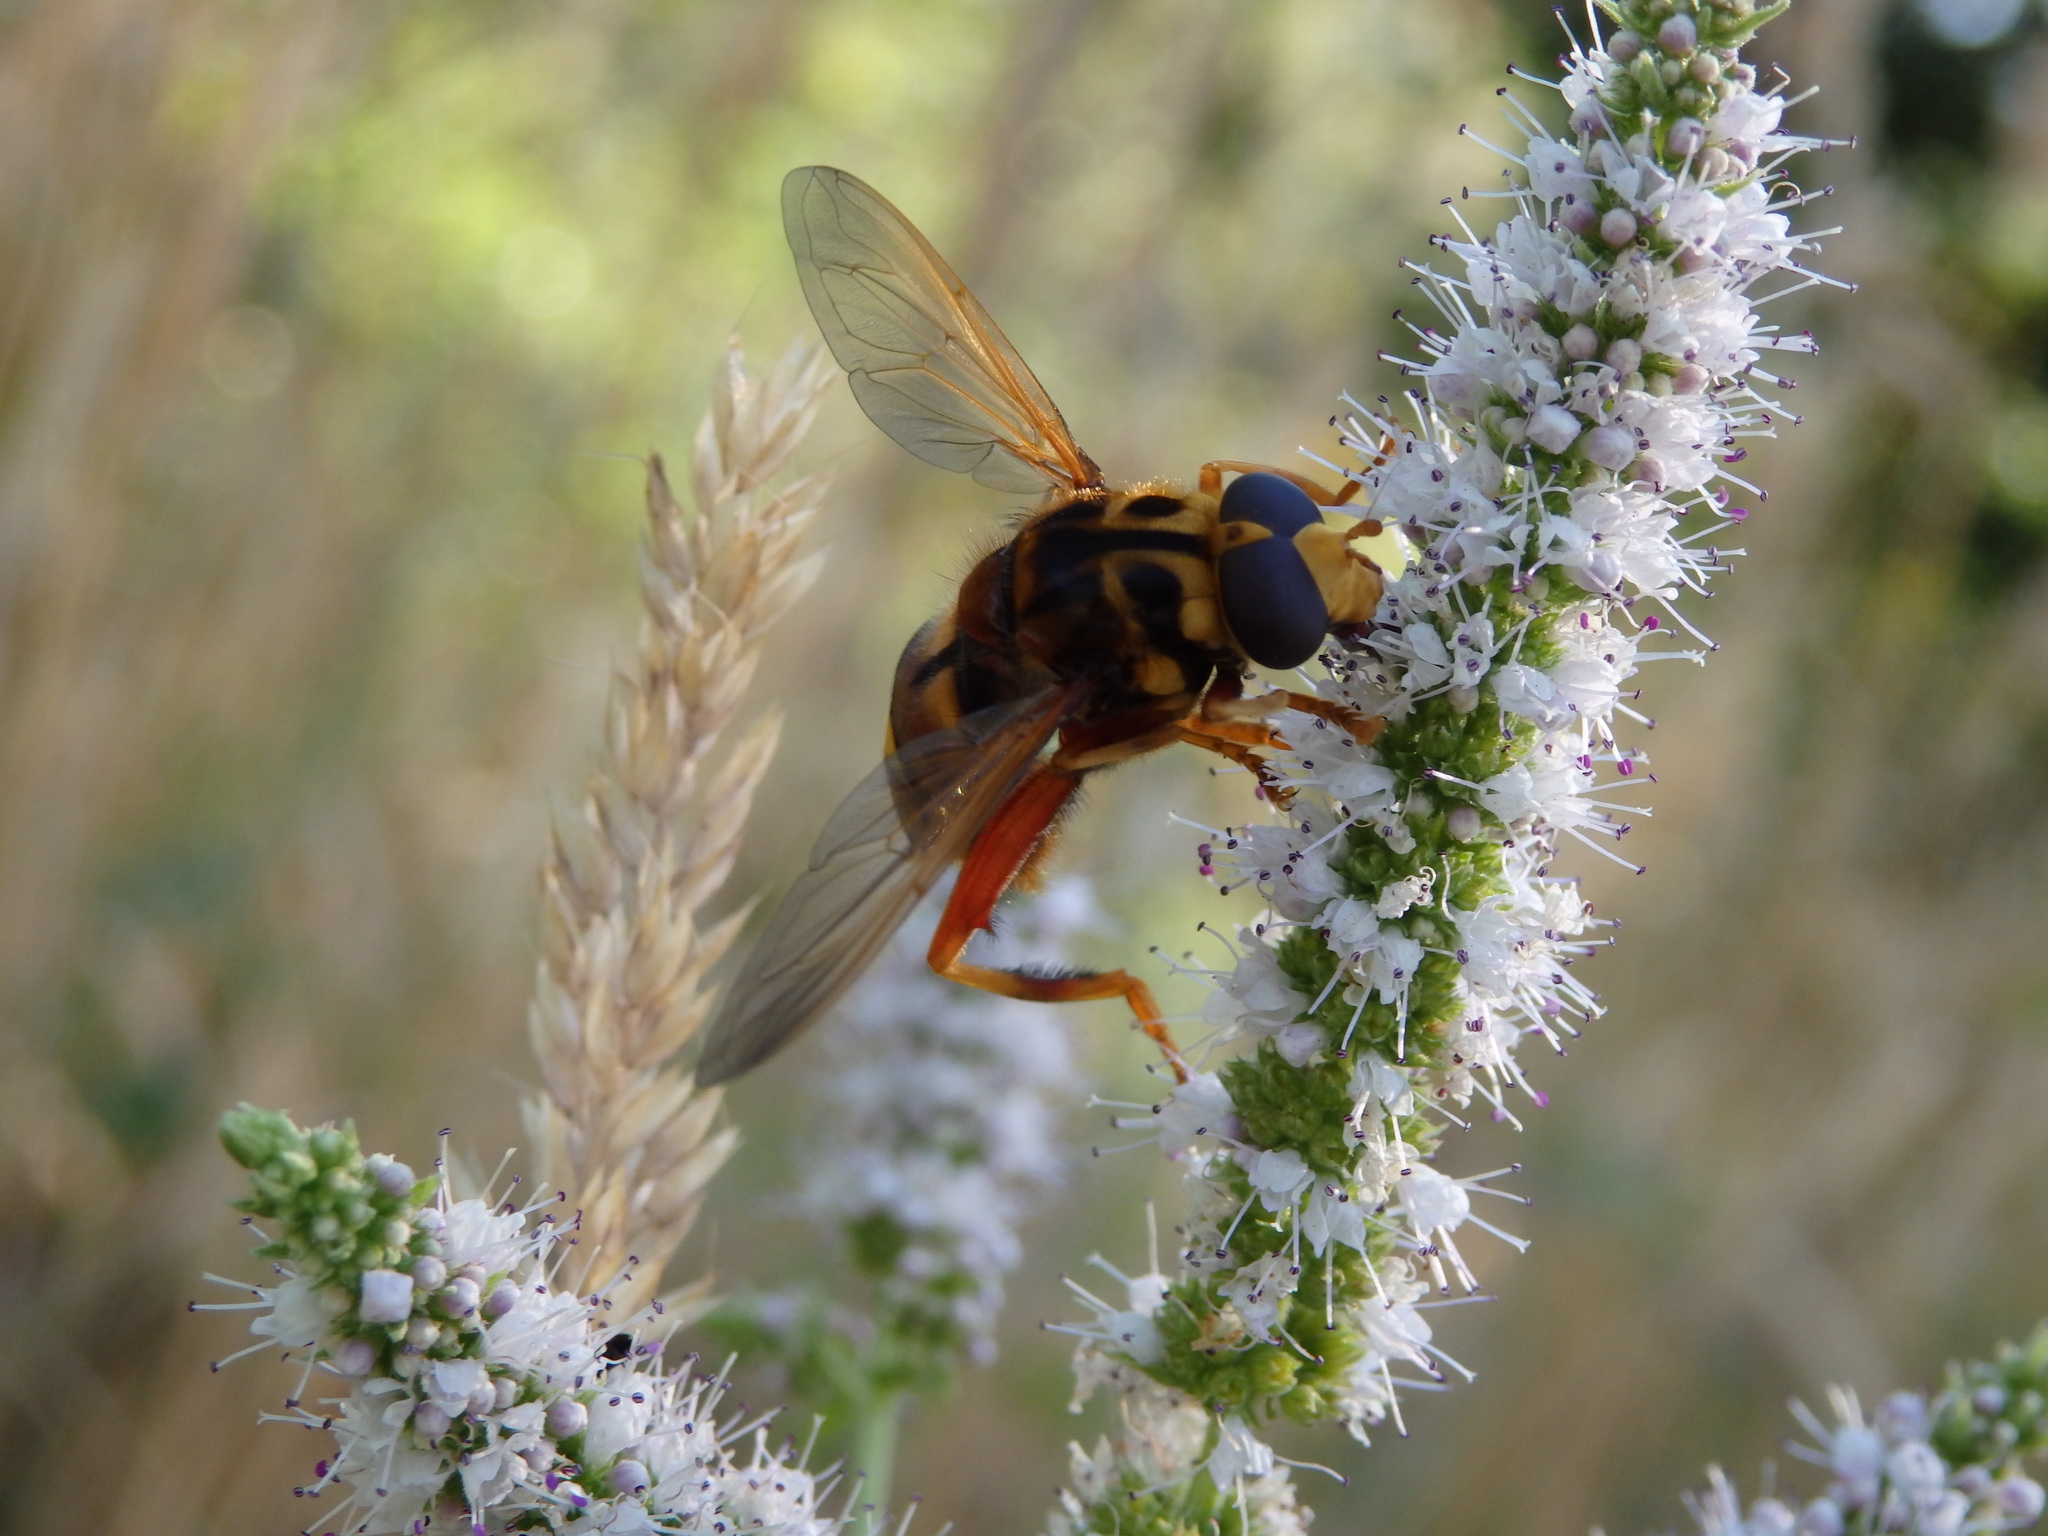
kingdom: Animalia
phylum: Arthropoda
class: Insecta
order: Diptera
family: Syrphidae
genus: Milesia
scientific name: Milesia crabroniformis
